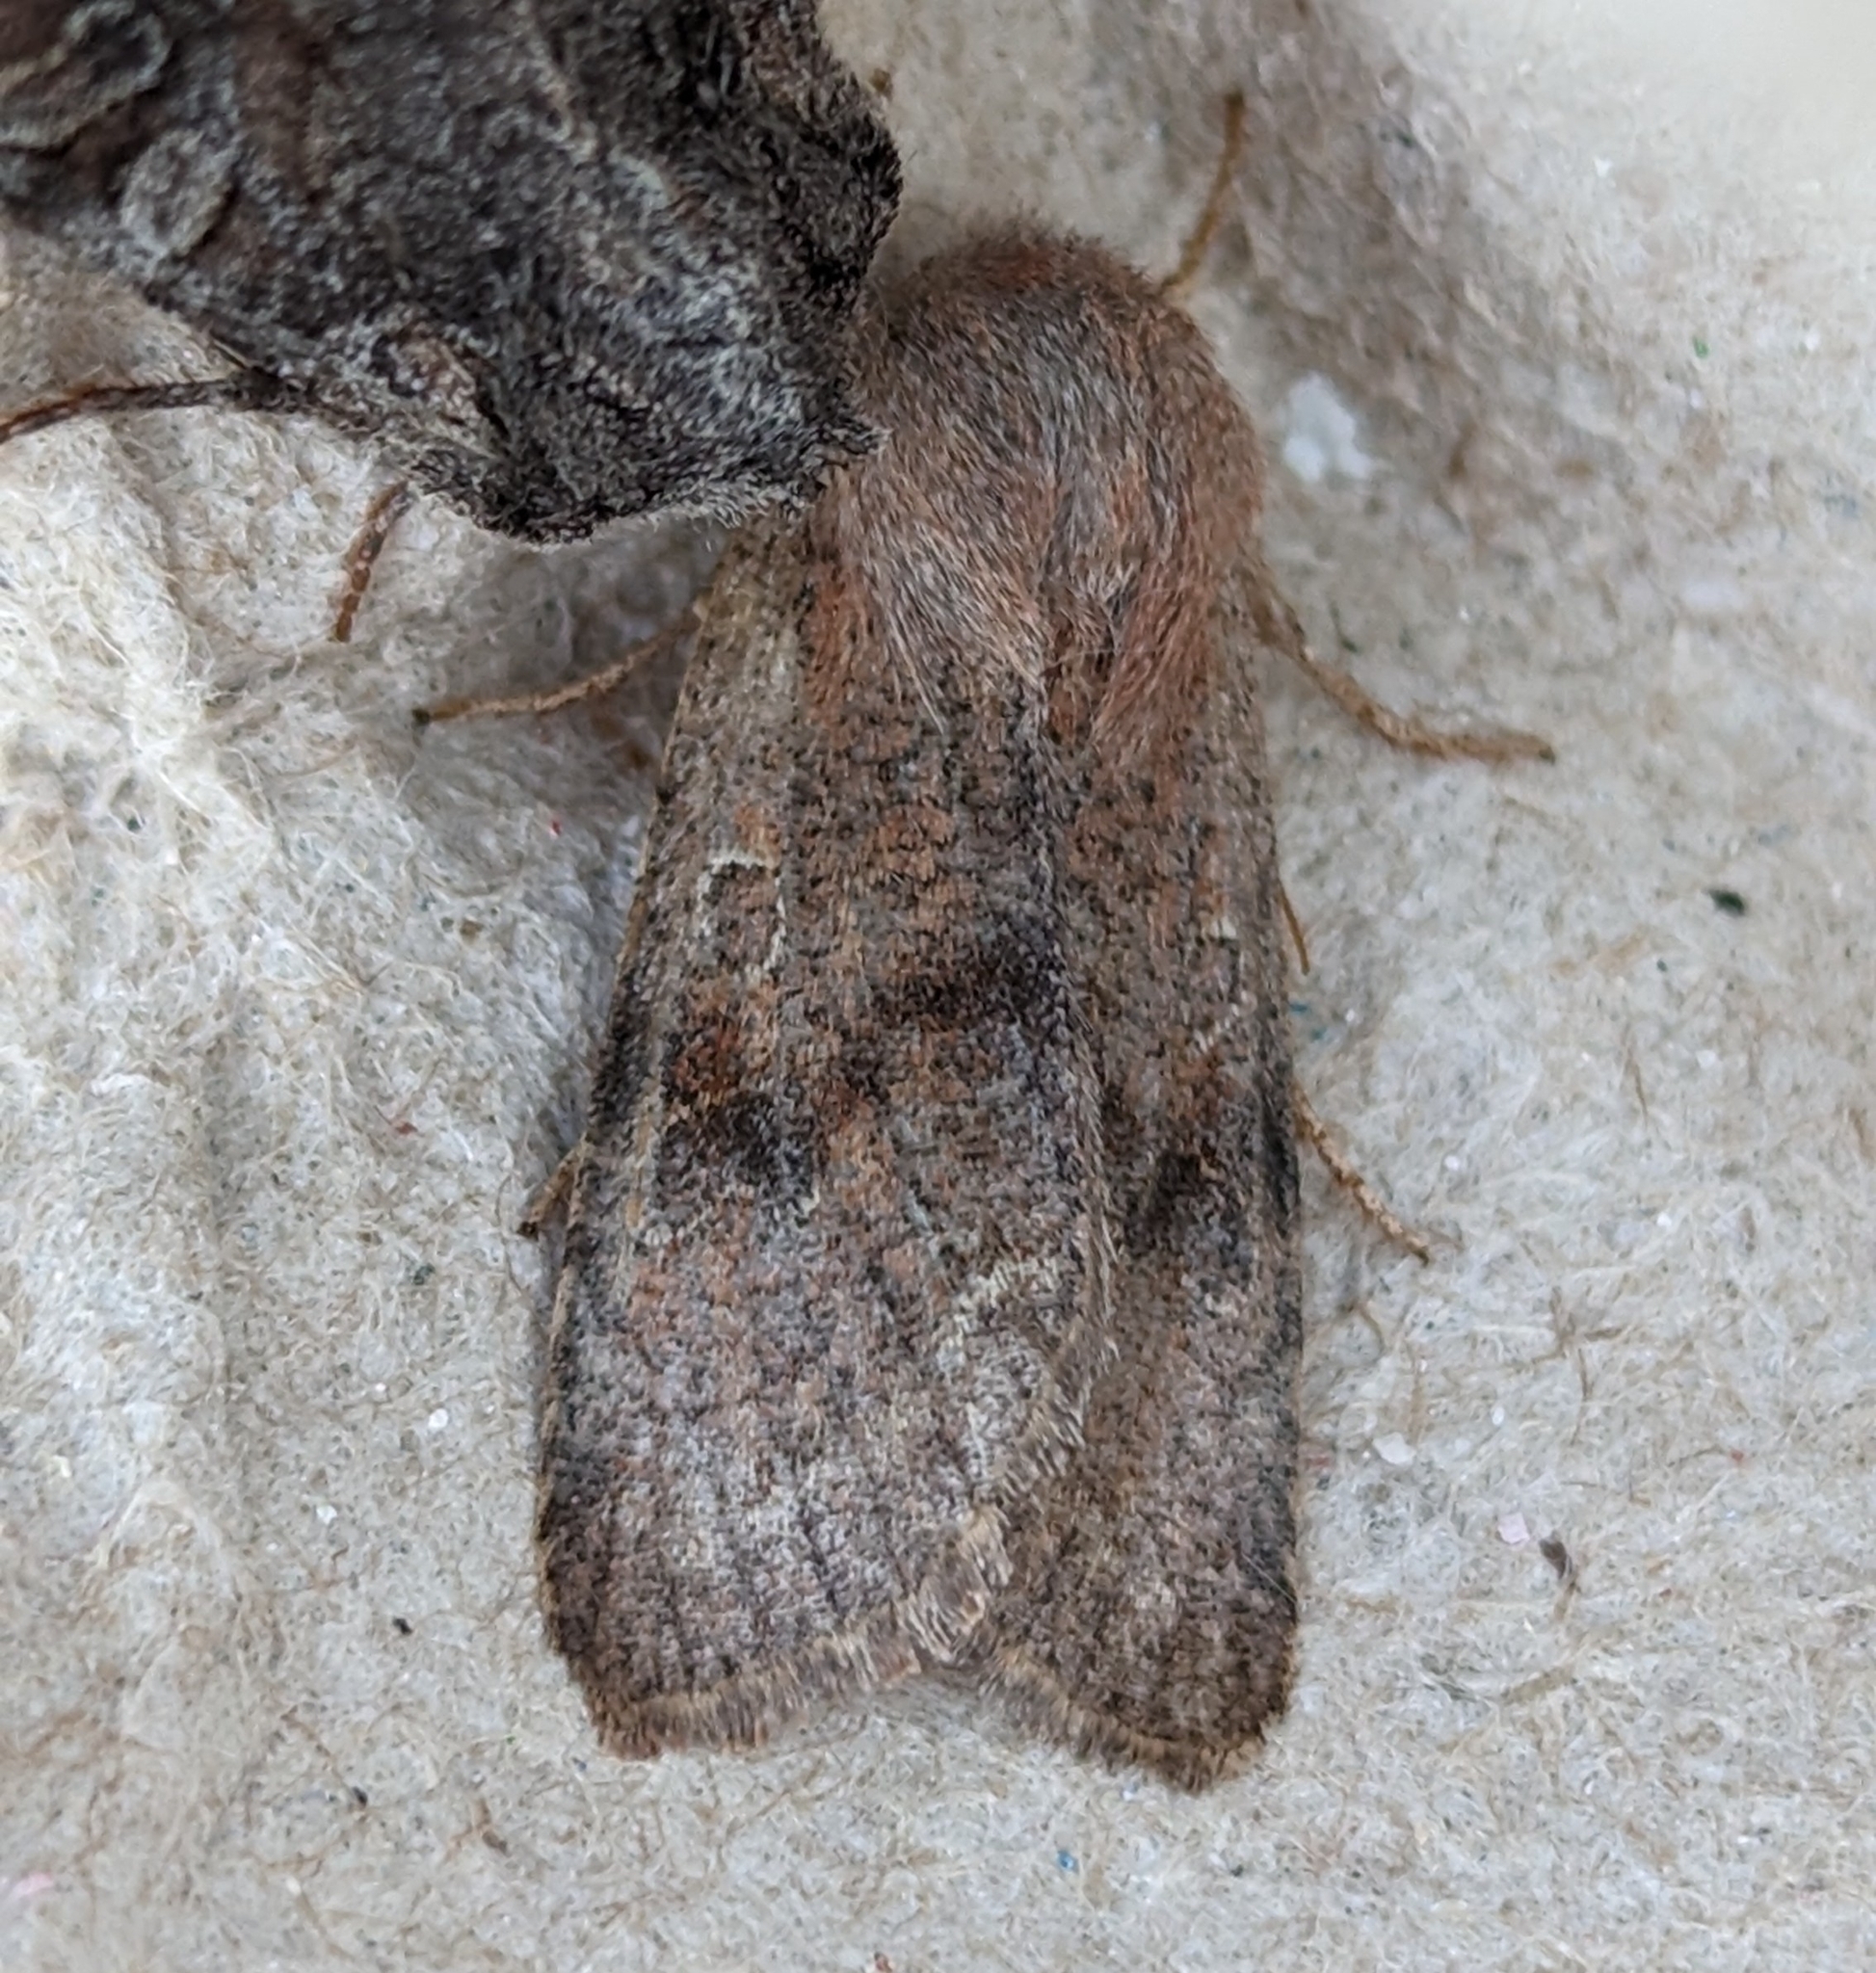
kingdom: Animalia
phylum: Arthropoda
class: Insecta
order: Lepidoptera
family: Noctuidae
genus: Orthosia
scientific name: Orthosia hibisci
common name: Green fruitworm
